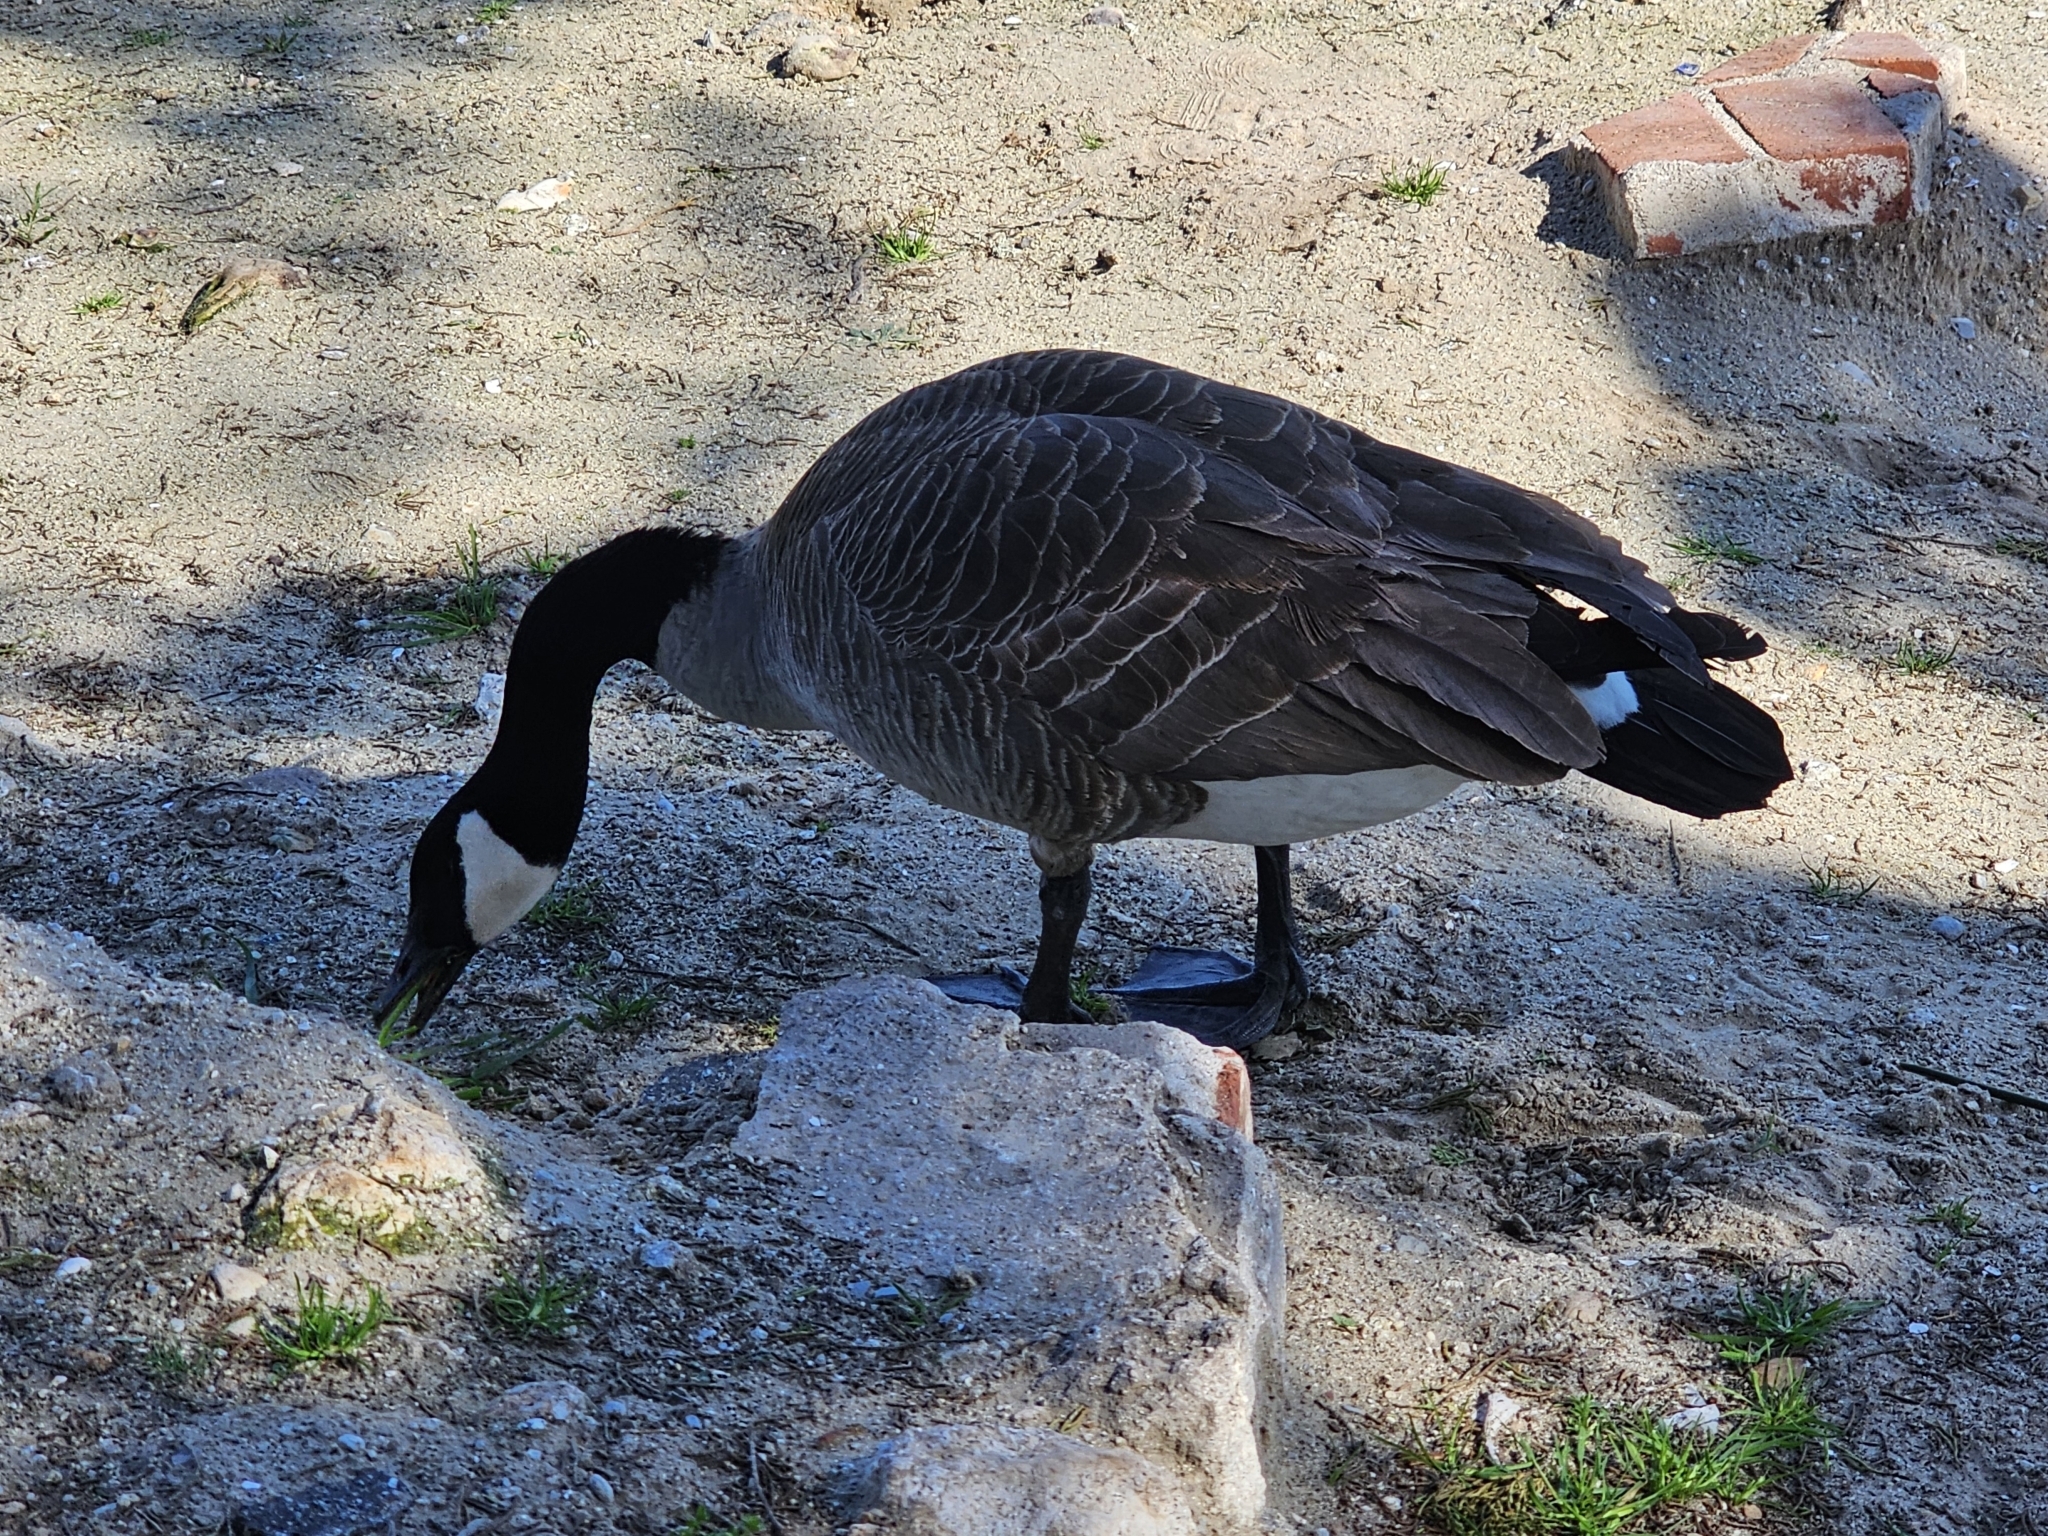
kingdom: Animalia
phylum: Chordata
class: Aves
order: Anseriformes
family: Anatidae
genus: Branta
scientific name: Branta canadensis
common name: Canada goose
